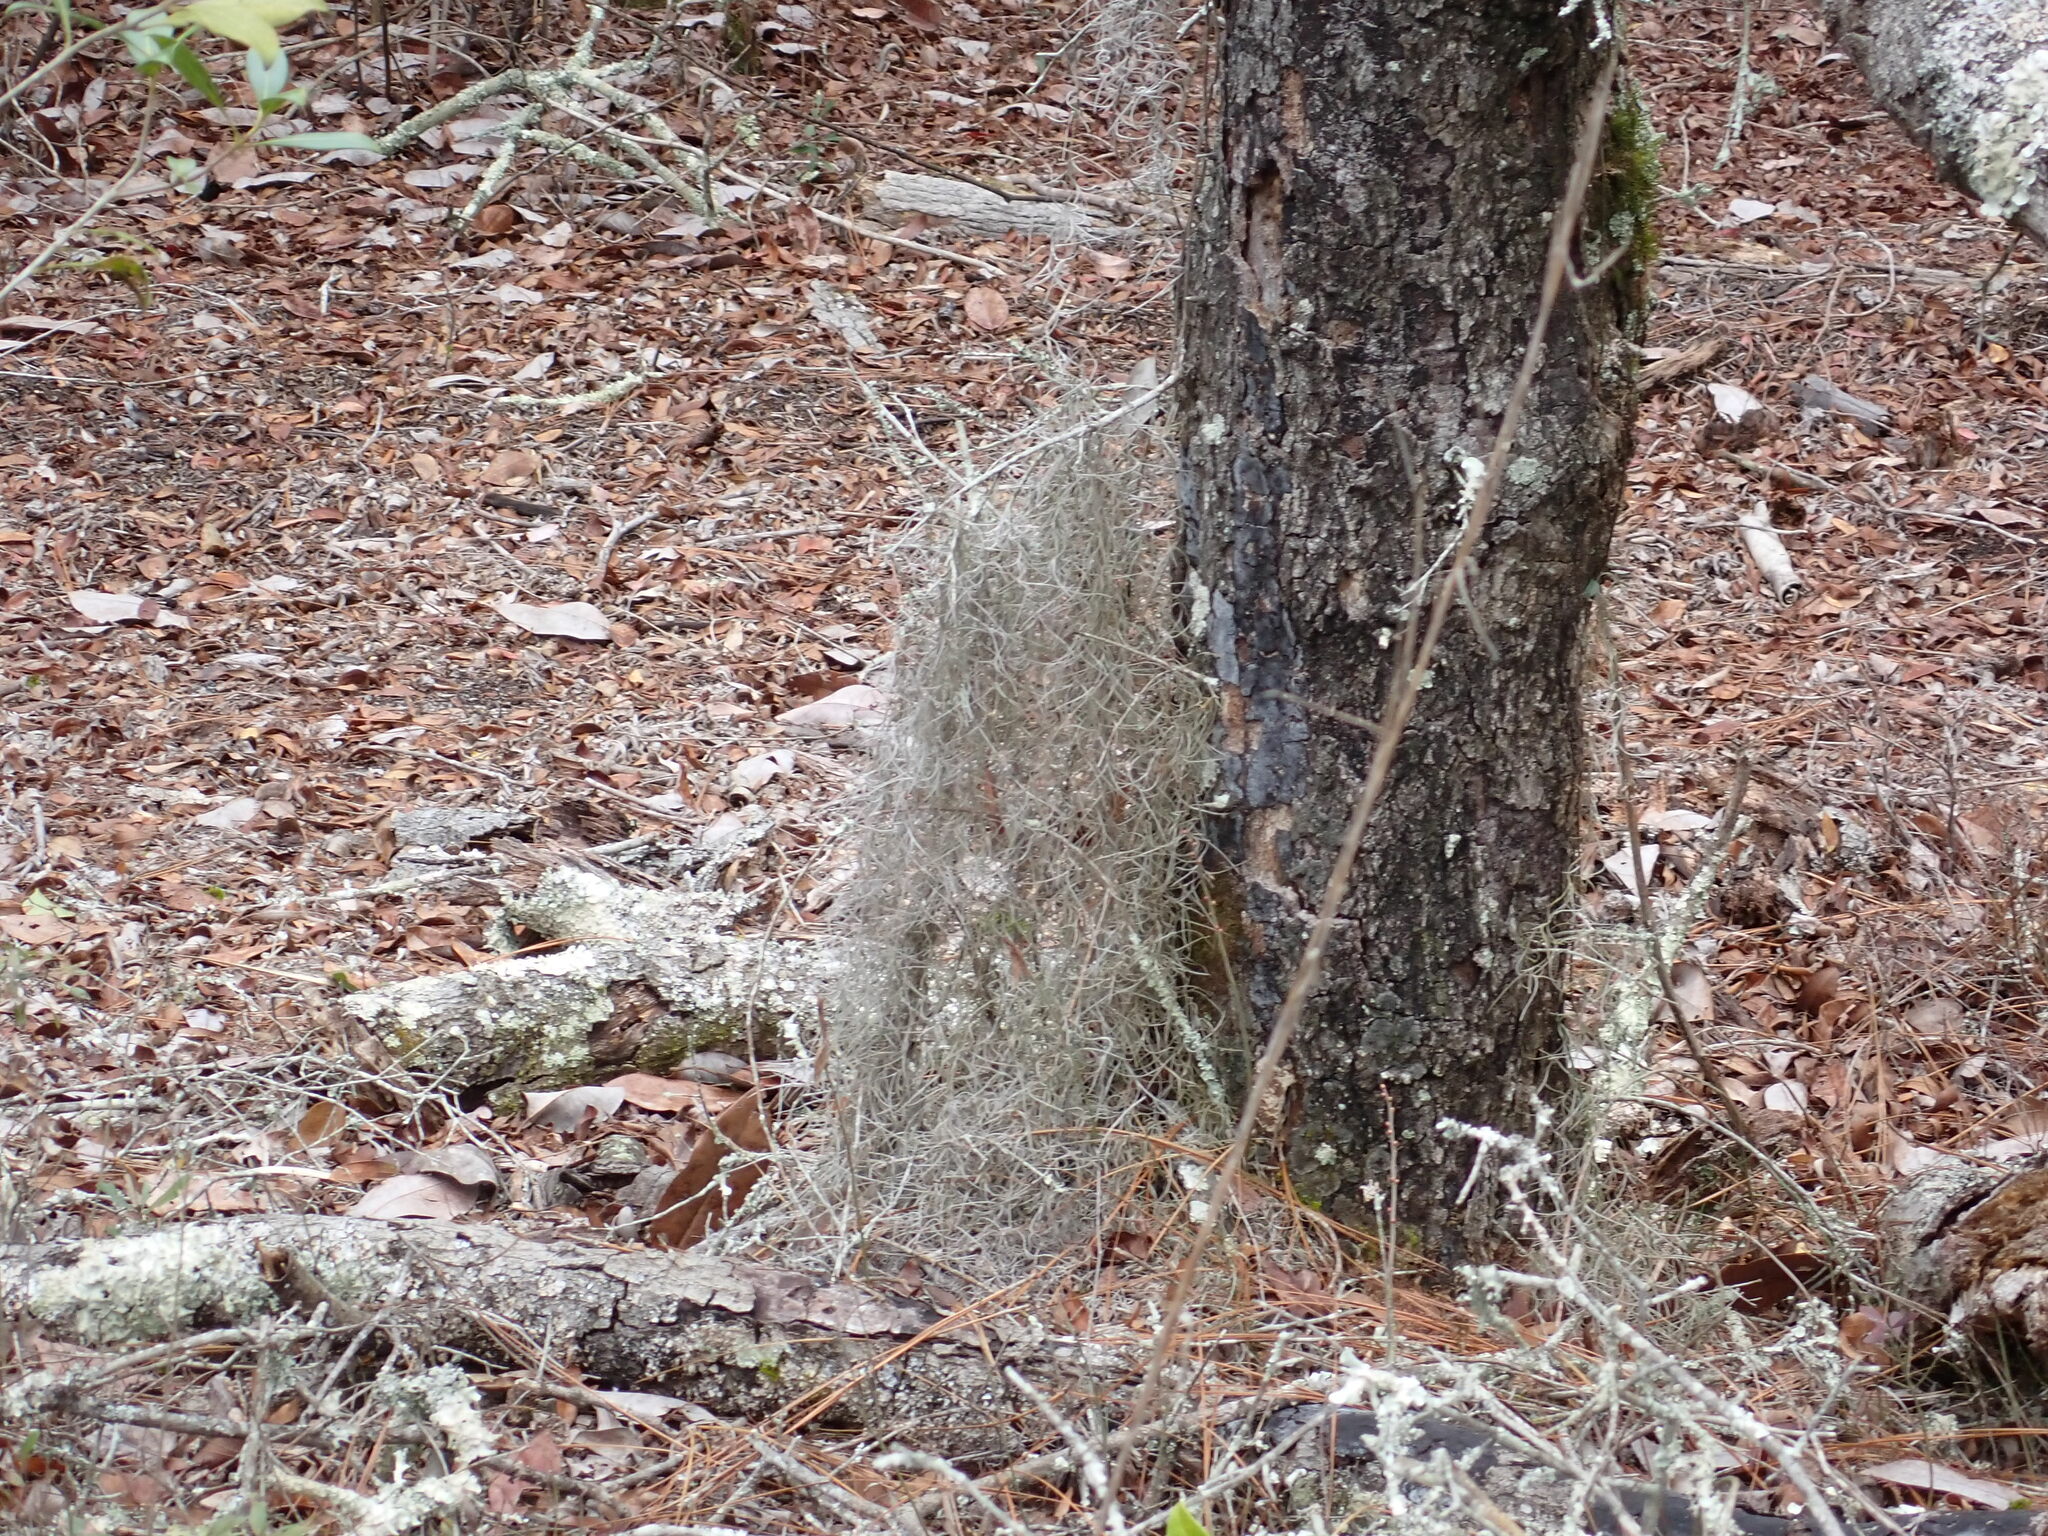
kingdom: Plantae
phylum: Tracheophyta
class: Liliopsida
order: Poales
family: Bromeliaceae
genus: Tillandsia
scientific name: Tillandsia usneoides
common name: Spanish moss
